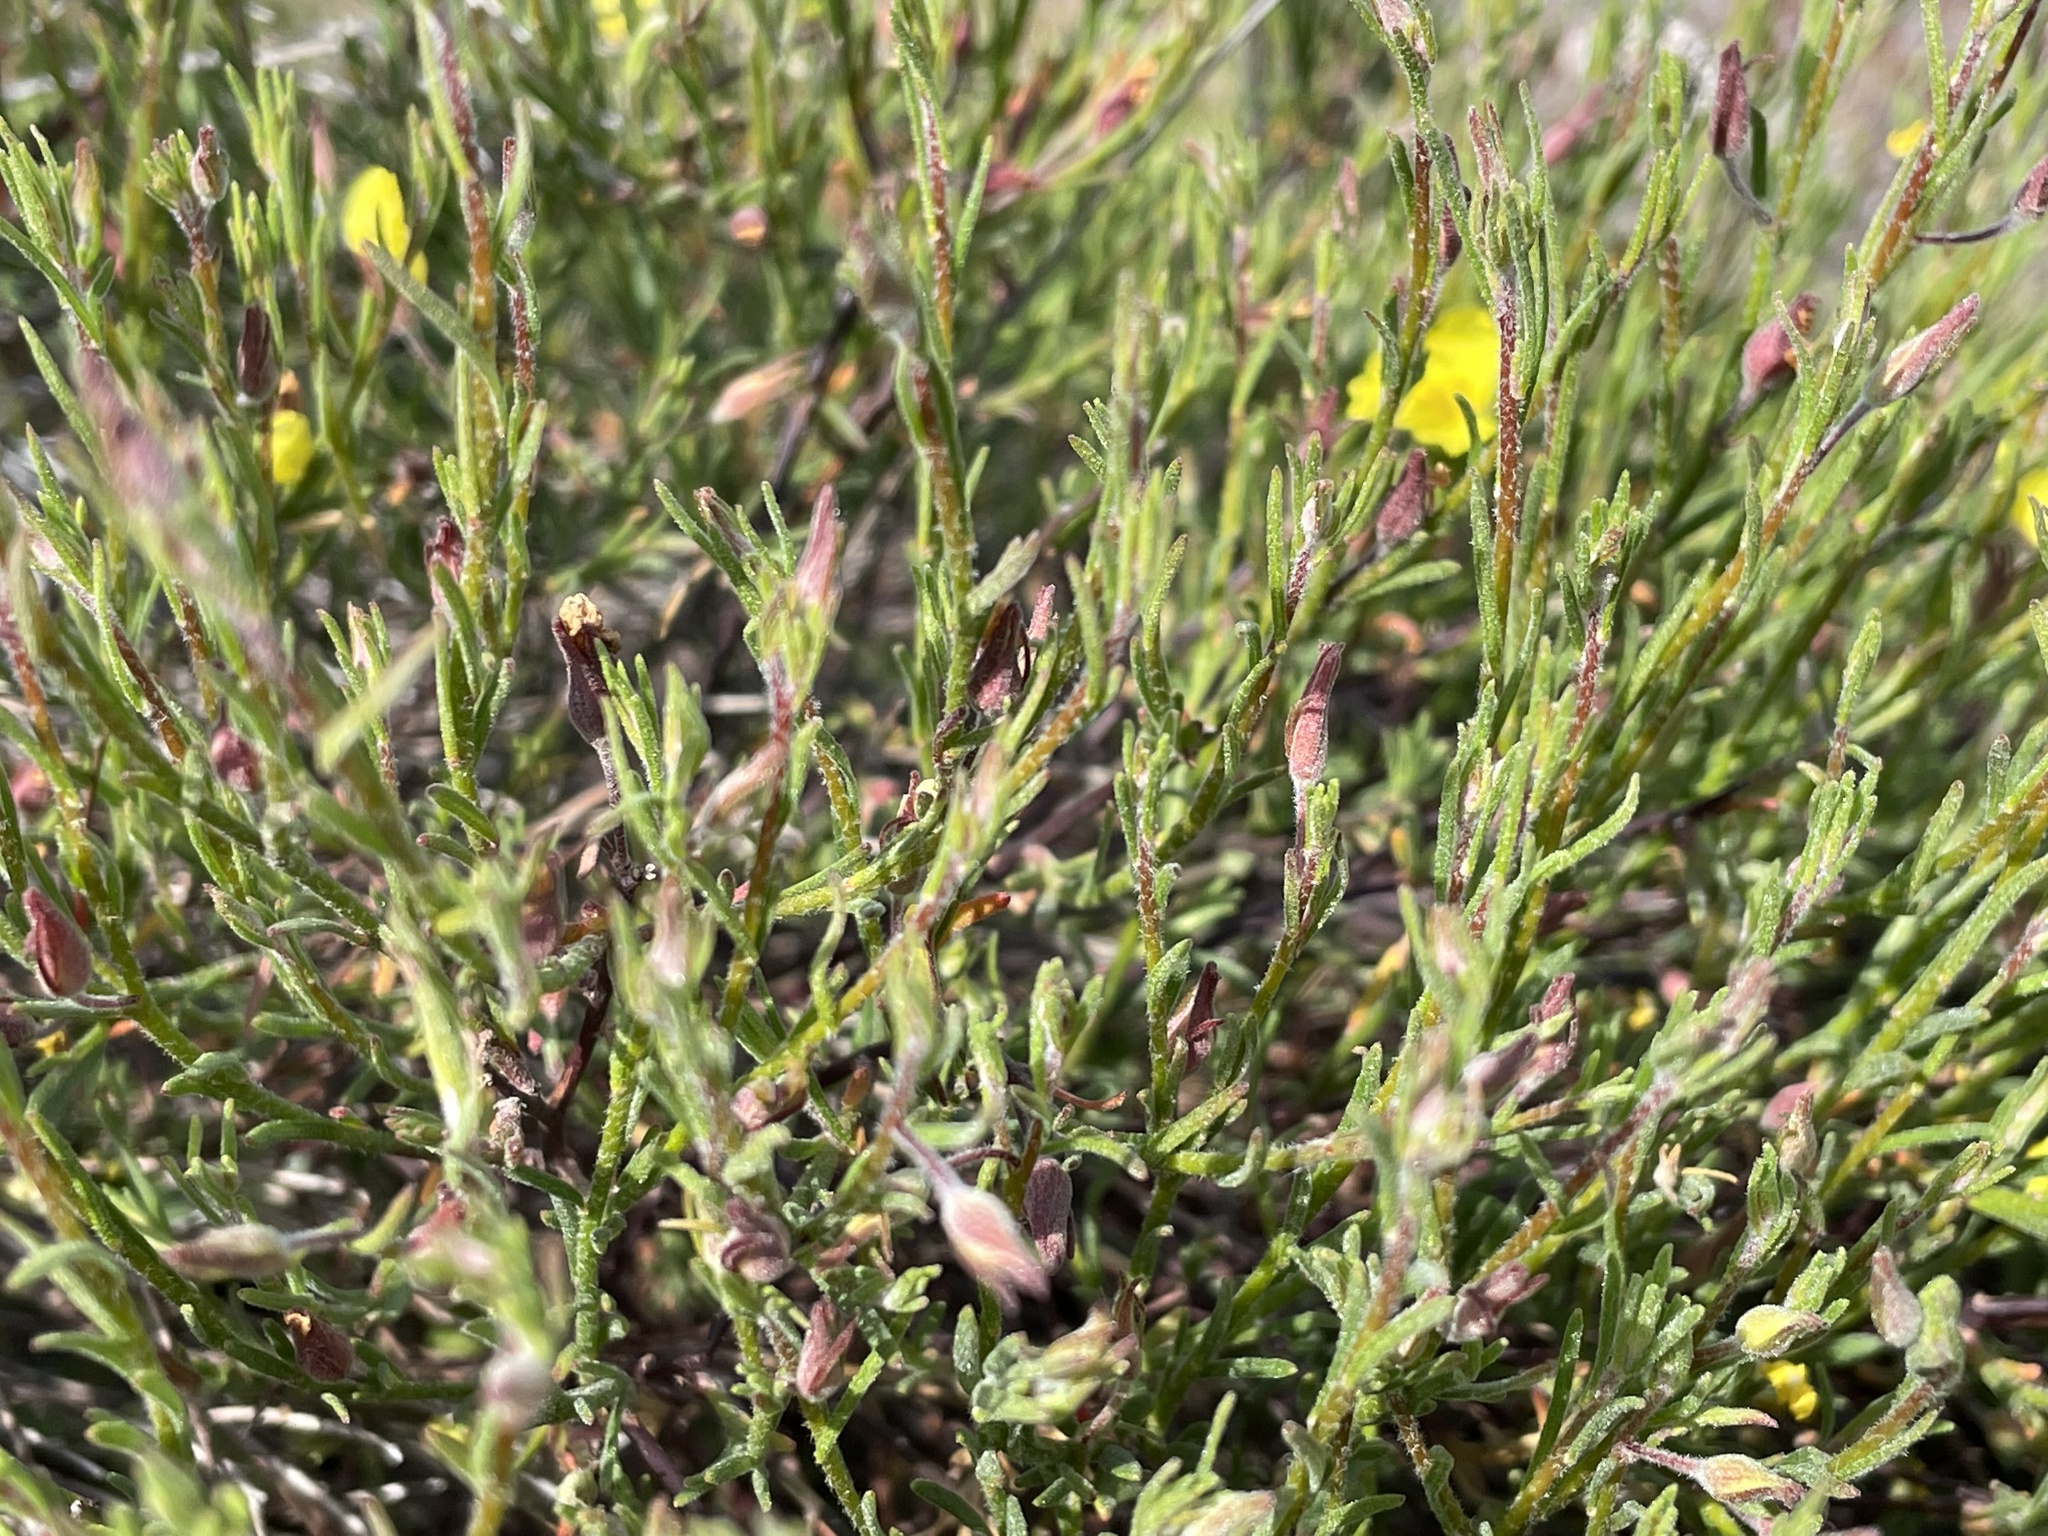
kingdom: Plantae
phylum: Tracheophyta
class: Magnoliopsida
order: Malvales
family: Cistaceae
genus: Crocanthemum
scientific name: Crocanthemum scoparium
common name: Broom-rose
